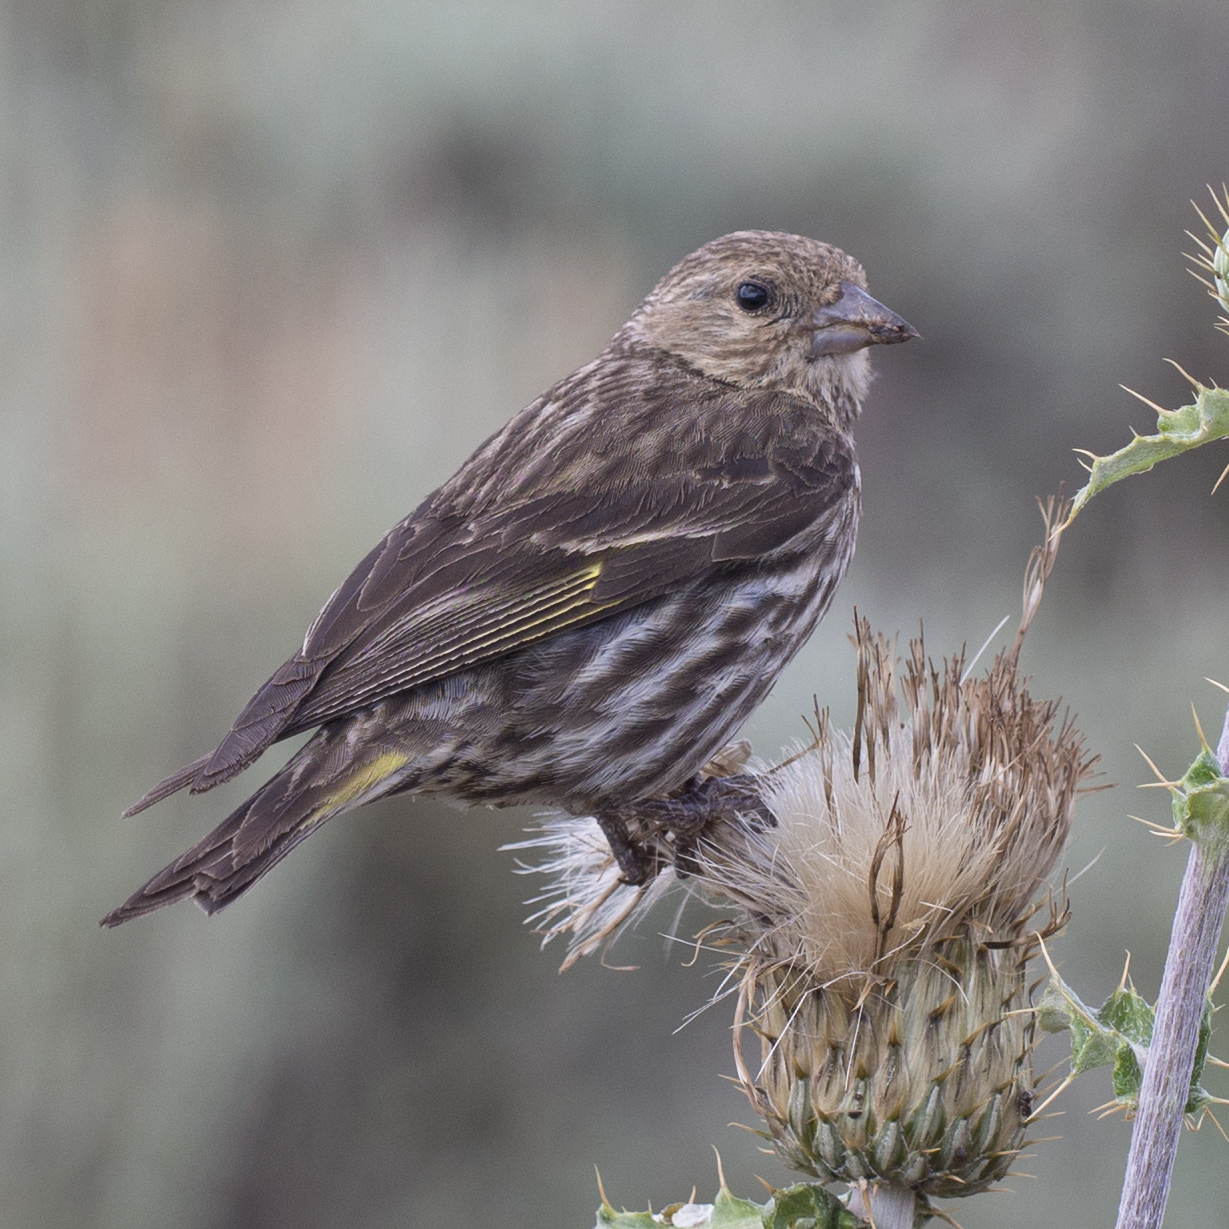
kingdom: Animalia
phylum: Chordata
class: Aves
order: Passeriformes
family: Fringillidae
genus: Spinus
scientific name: Spinus pinus
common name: Pine siskin
